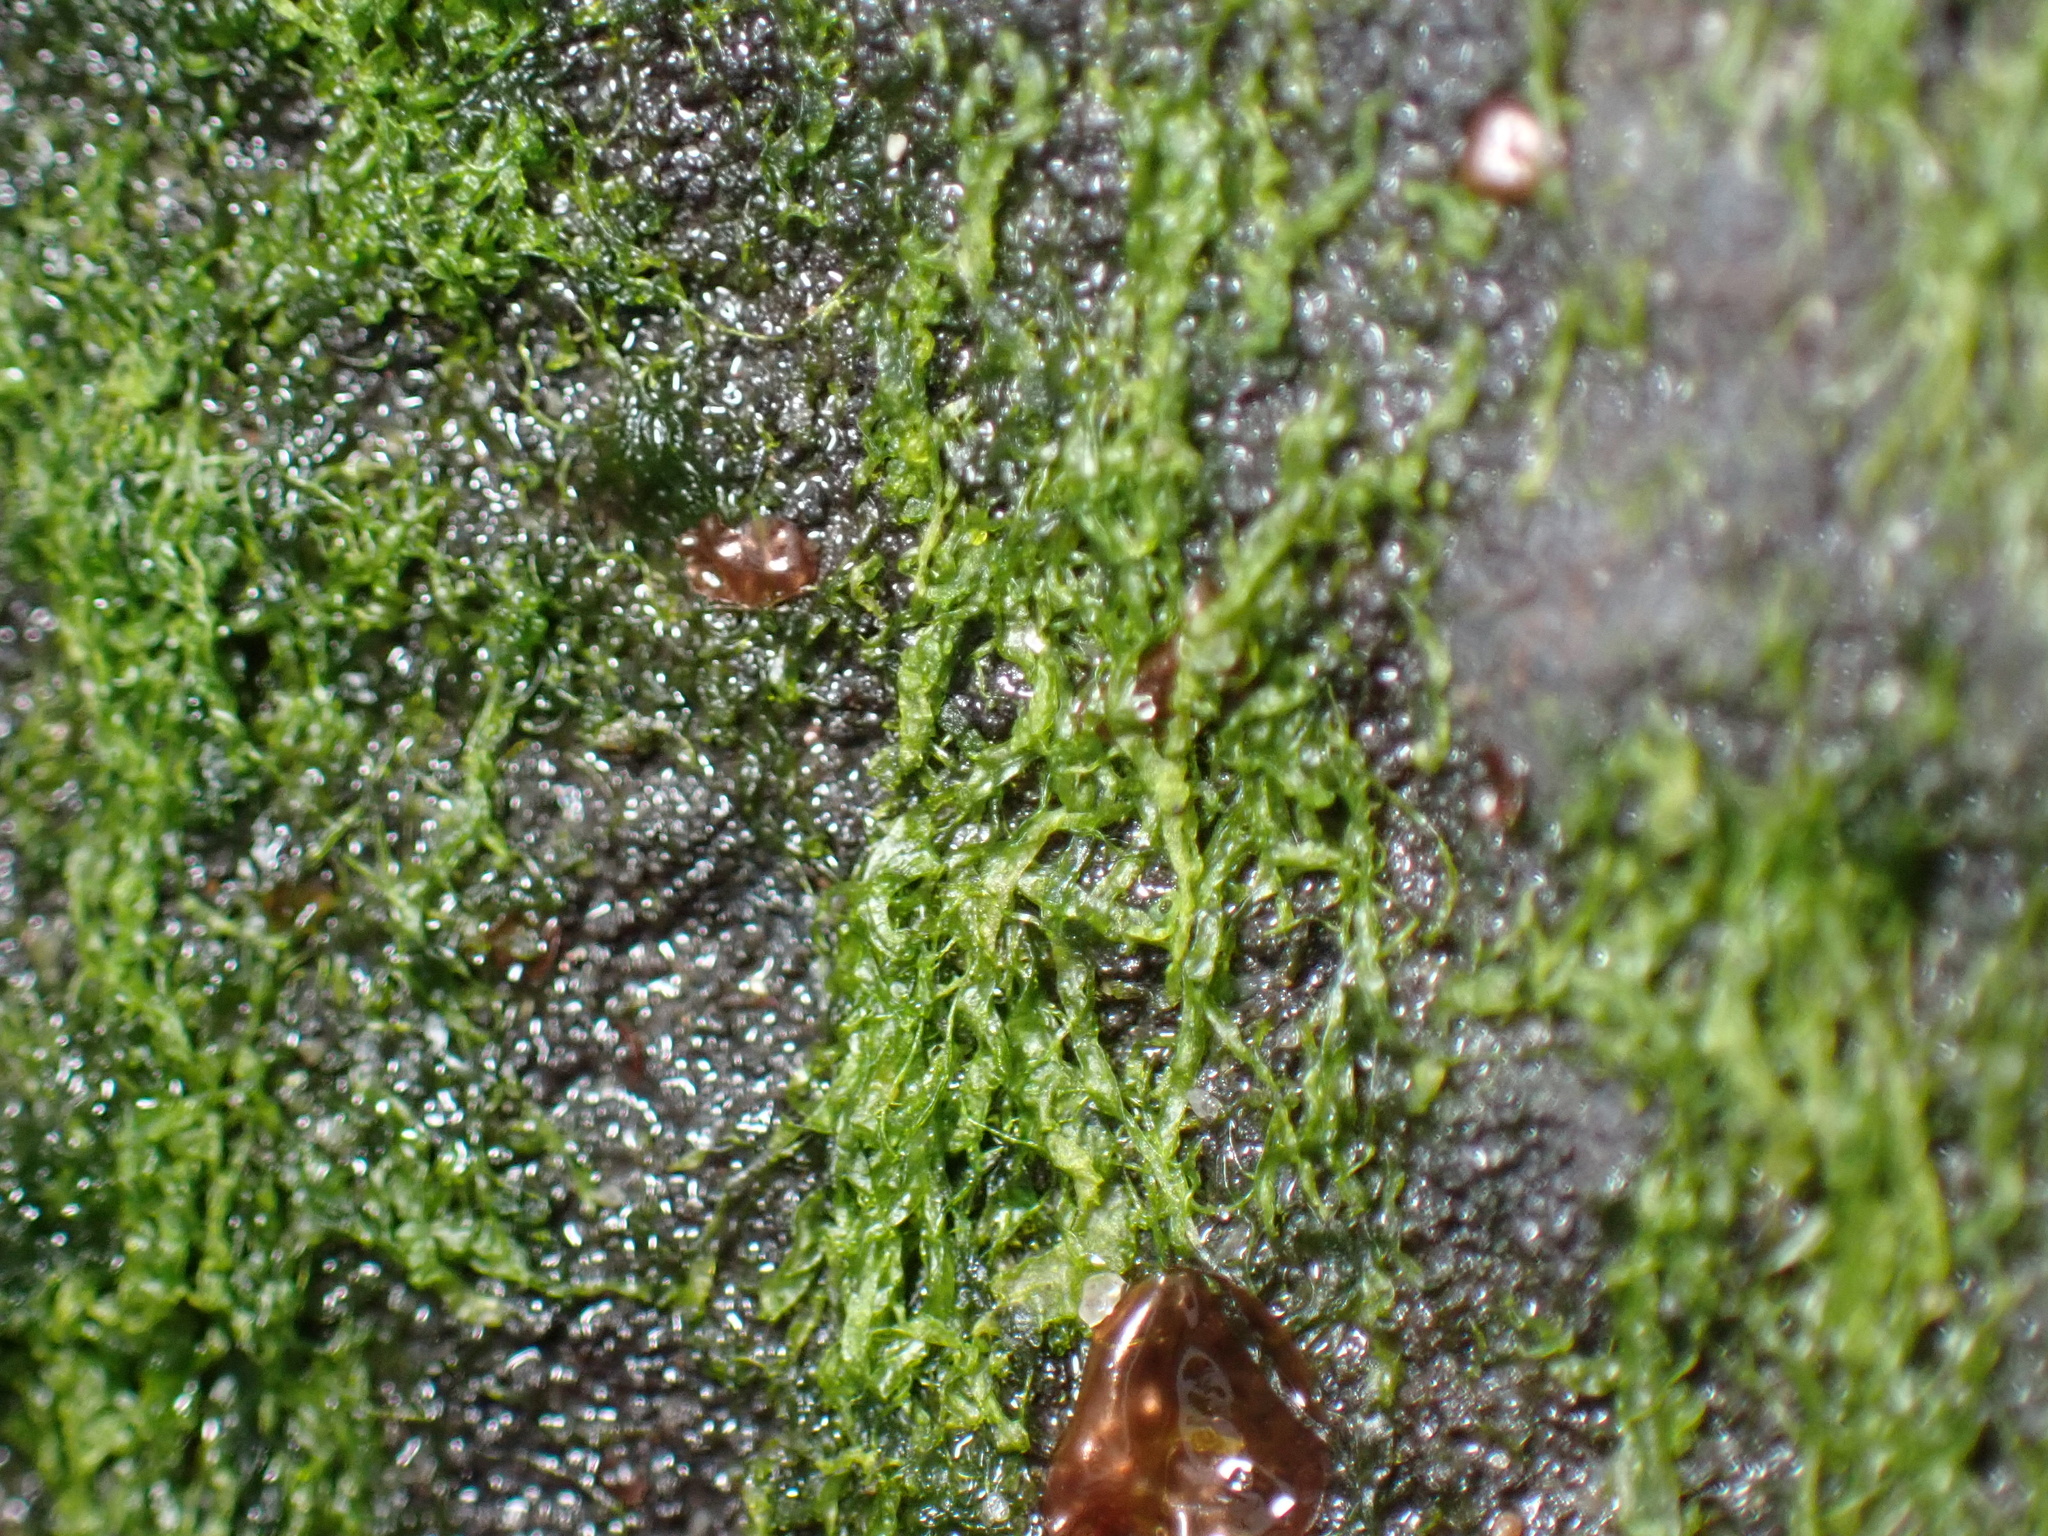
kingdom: Plantae
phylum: Chlorophyta
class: Ulvophyceae
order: Ulvales
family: Ulvaceae
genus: Ulva
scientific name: Ulva intestinalis
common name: Gut weed
